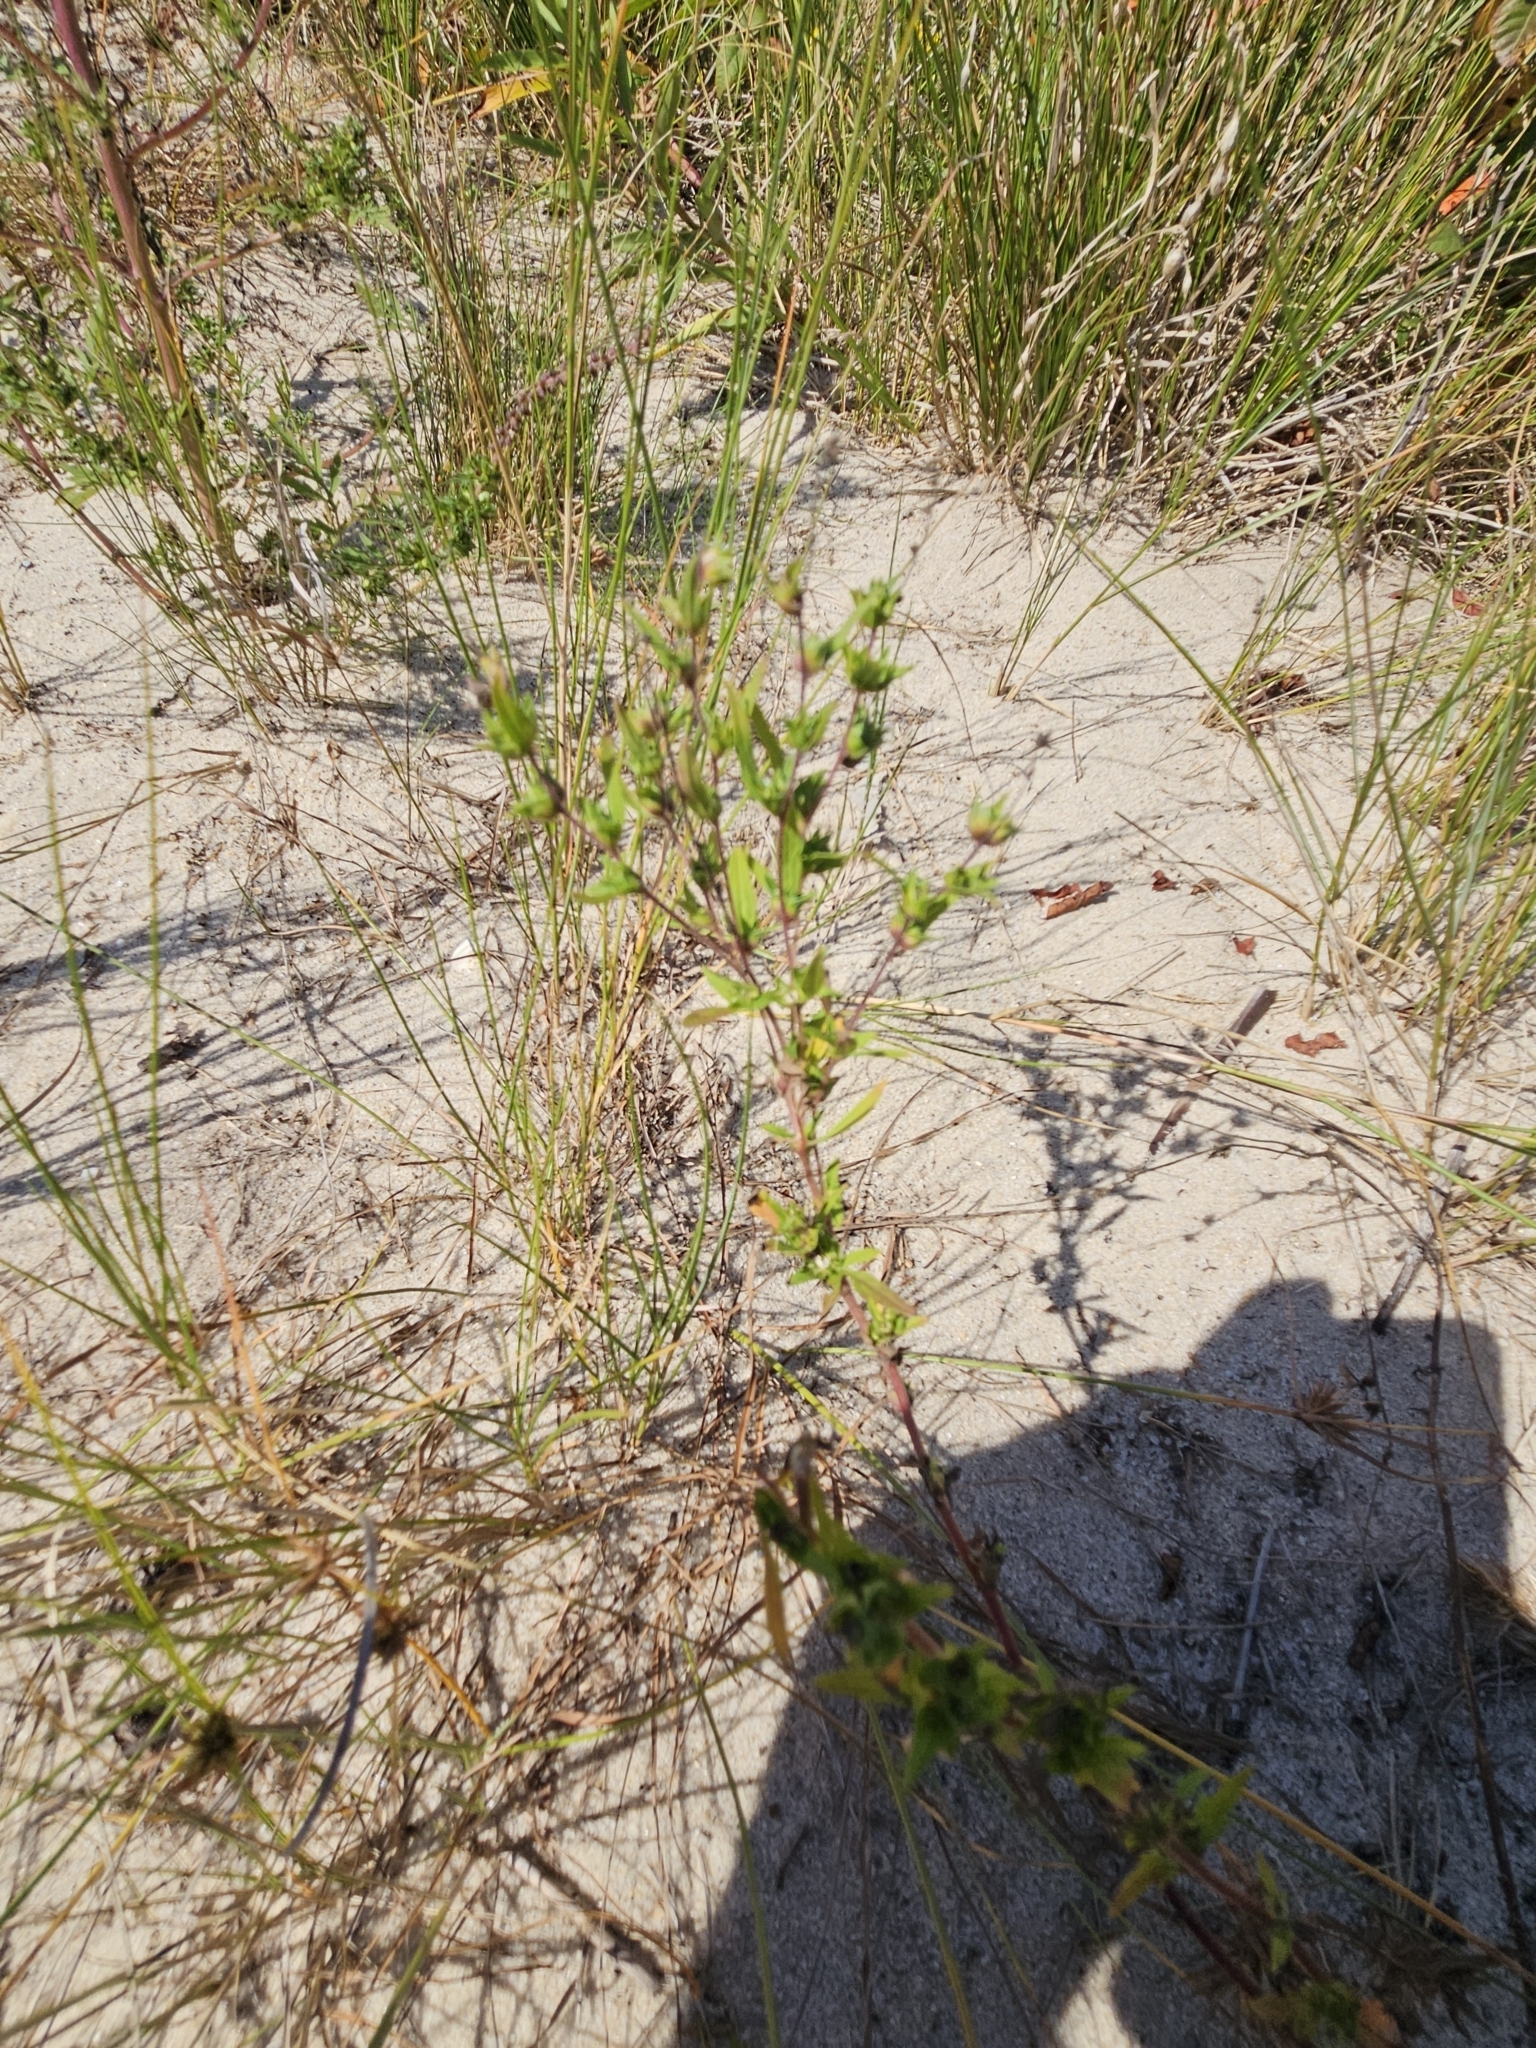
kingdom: Plantae
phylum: Tracheophyta
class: Magnoliopsida
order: Asterales
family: Asteraceae
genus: Ambrosia
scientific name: Ambrosia artemisiifolia
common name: Annual ragweed
